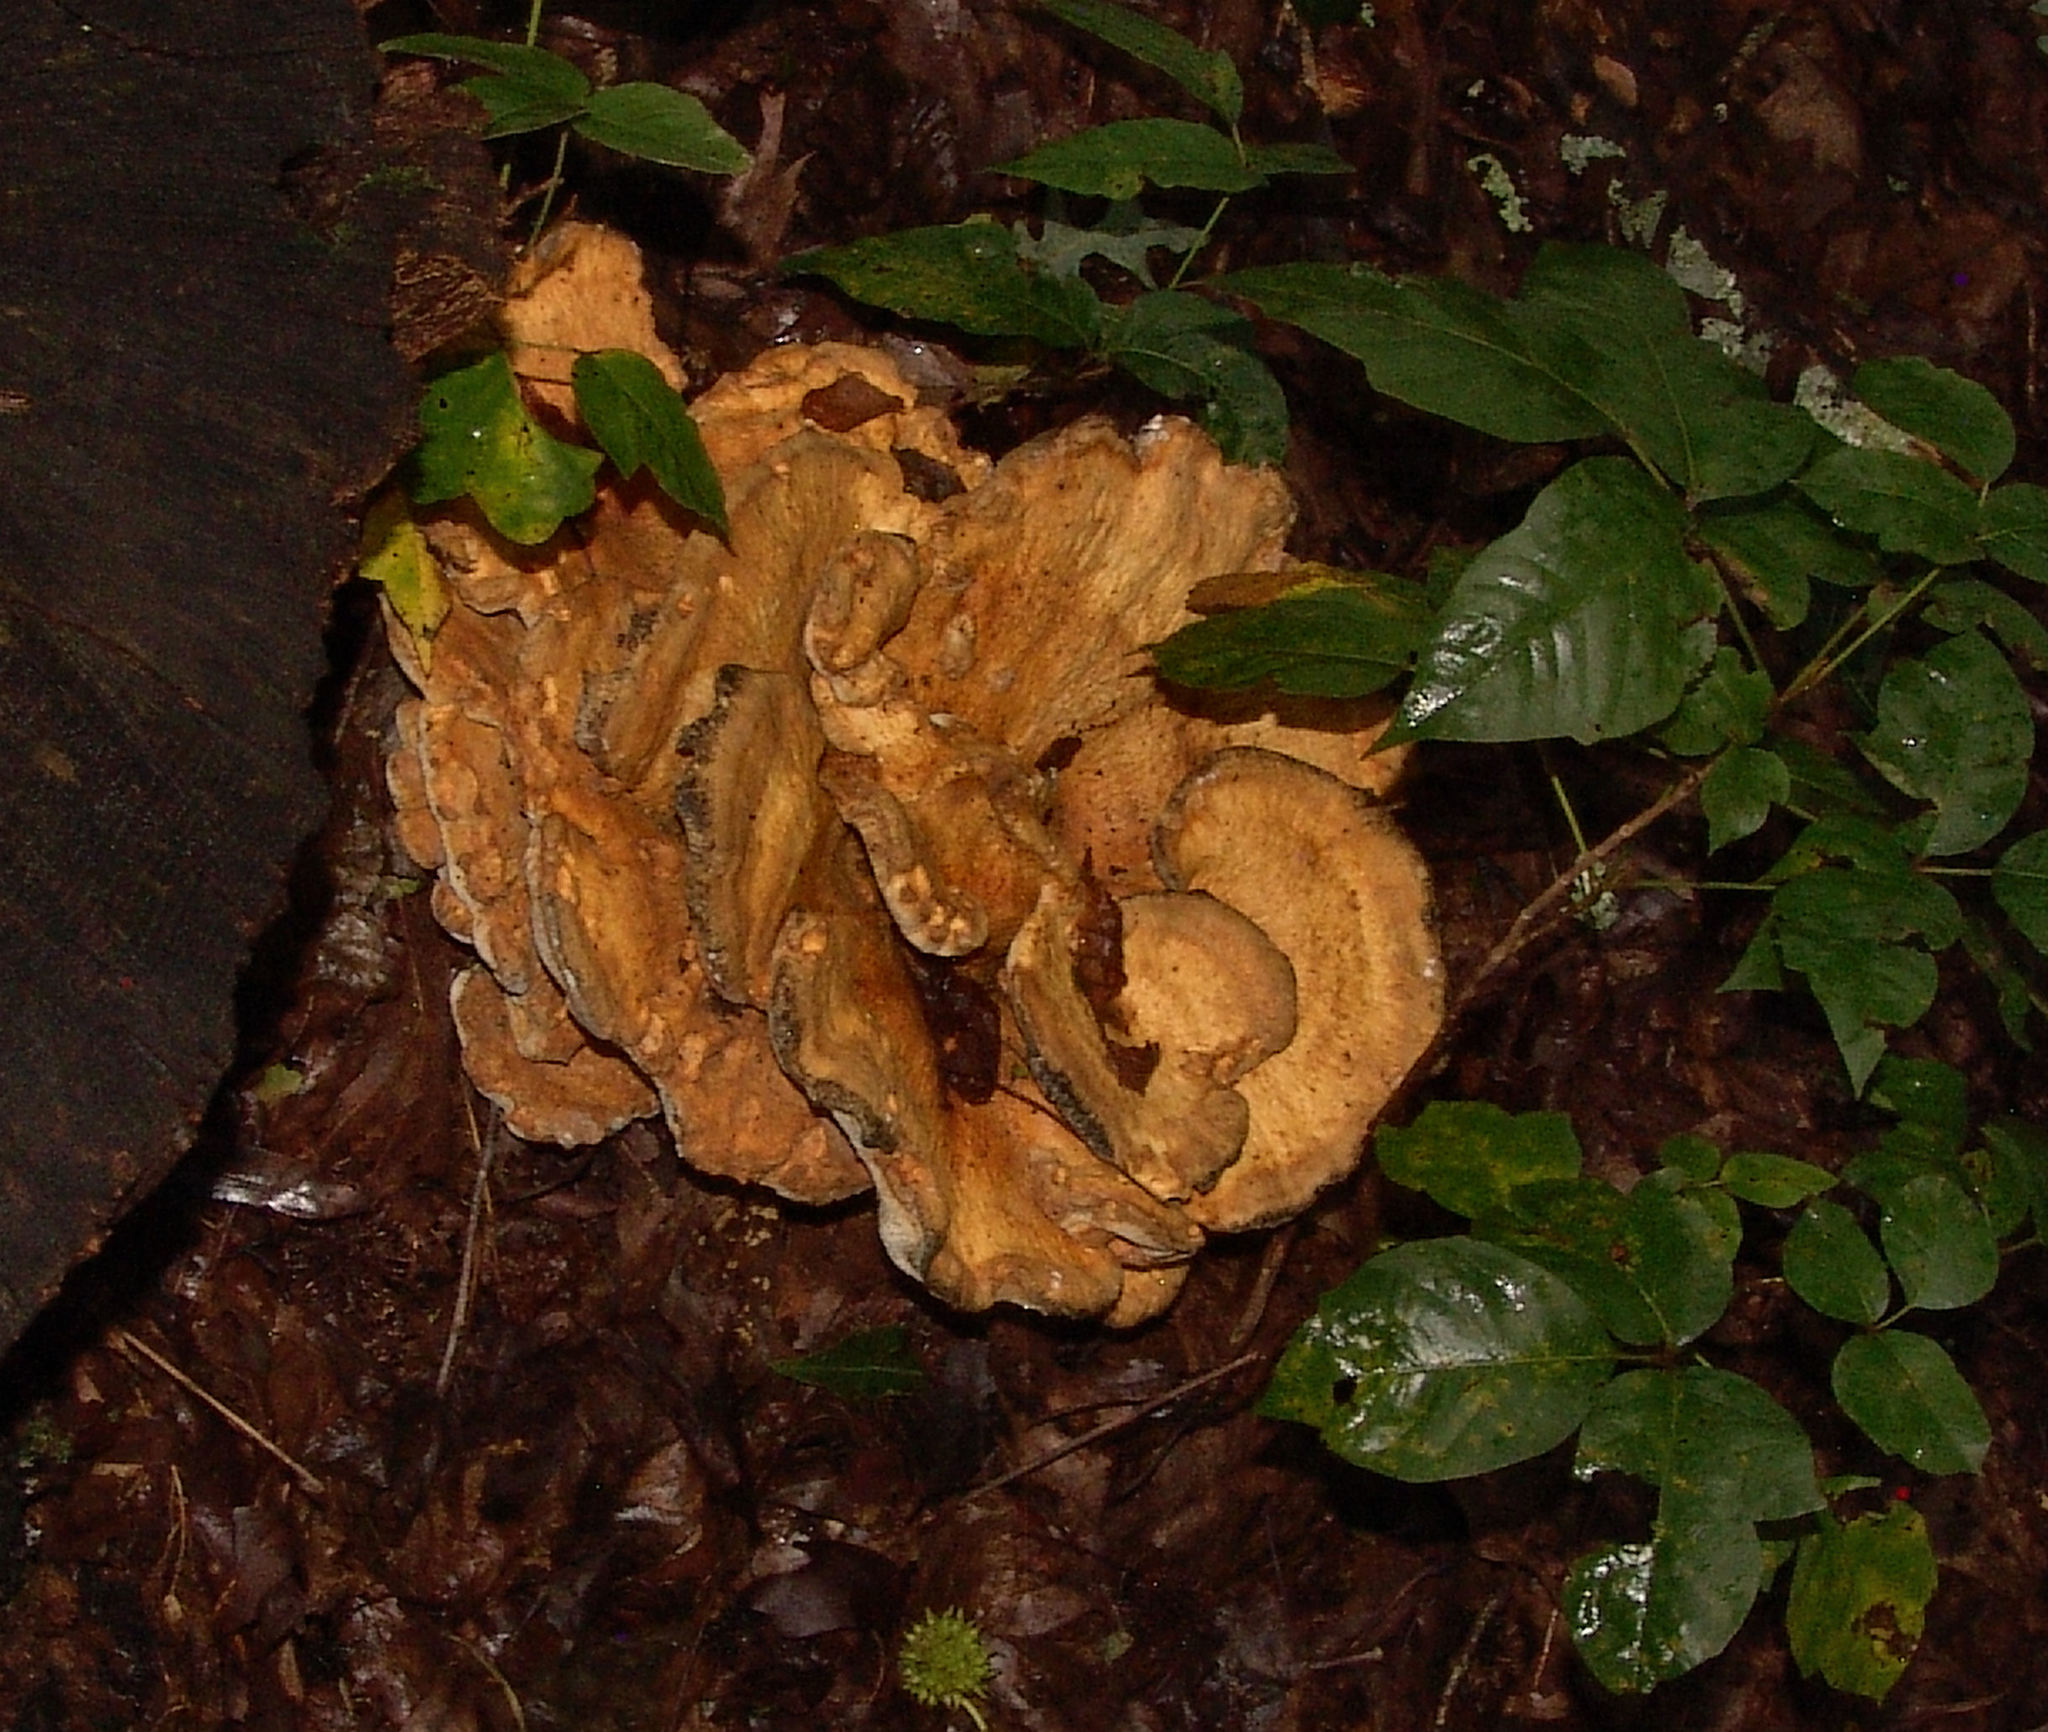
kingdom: Fungi
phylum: Basidiomycota
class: Agaricomycetes
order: Russulales
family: Bondarzewiaceae
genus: Bondarzewia
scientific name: Bondarzewia berkeleyi
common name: Berkeley's polypore
